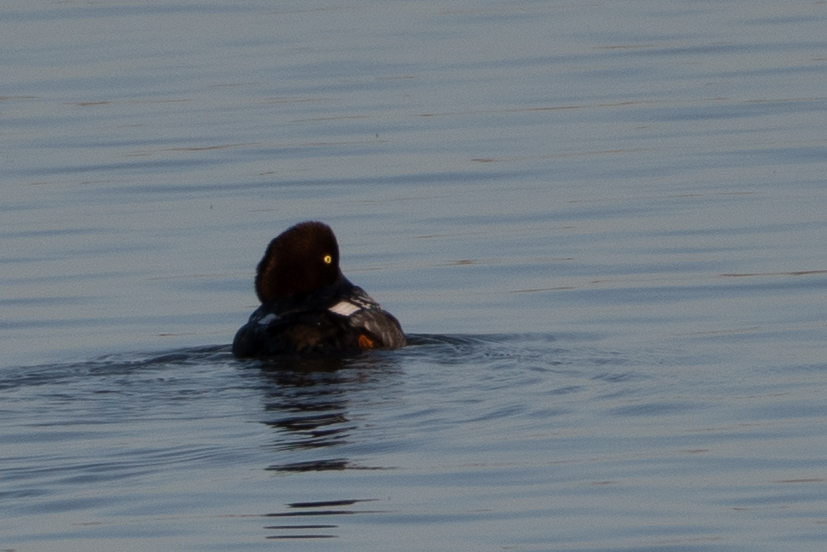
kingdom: Animalia
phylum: Chordata
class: Aves
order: Anseriformes
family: Anatidae
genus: Bucephala
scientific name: Bucephala clangula
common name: Common goldeneye
